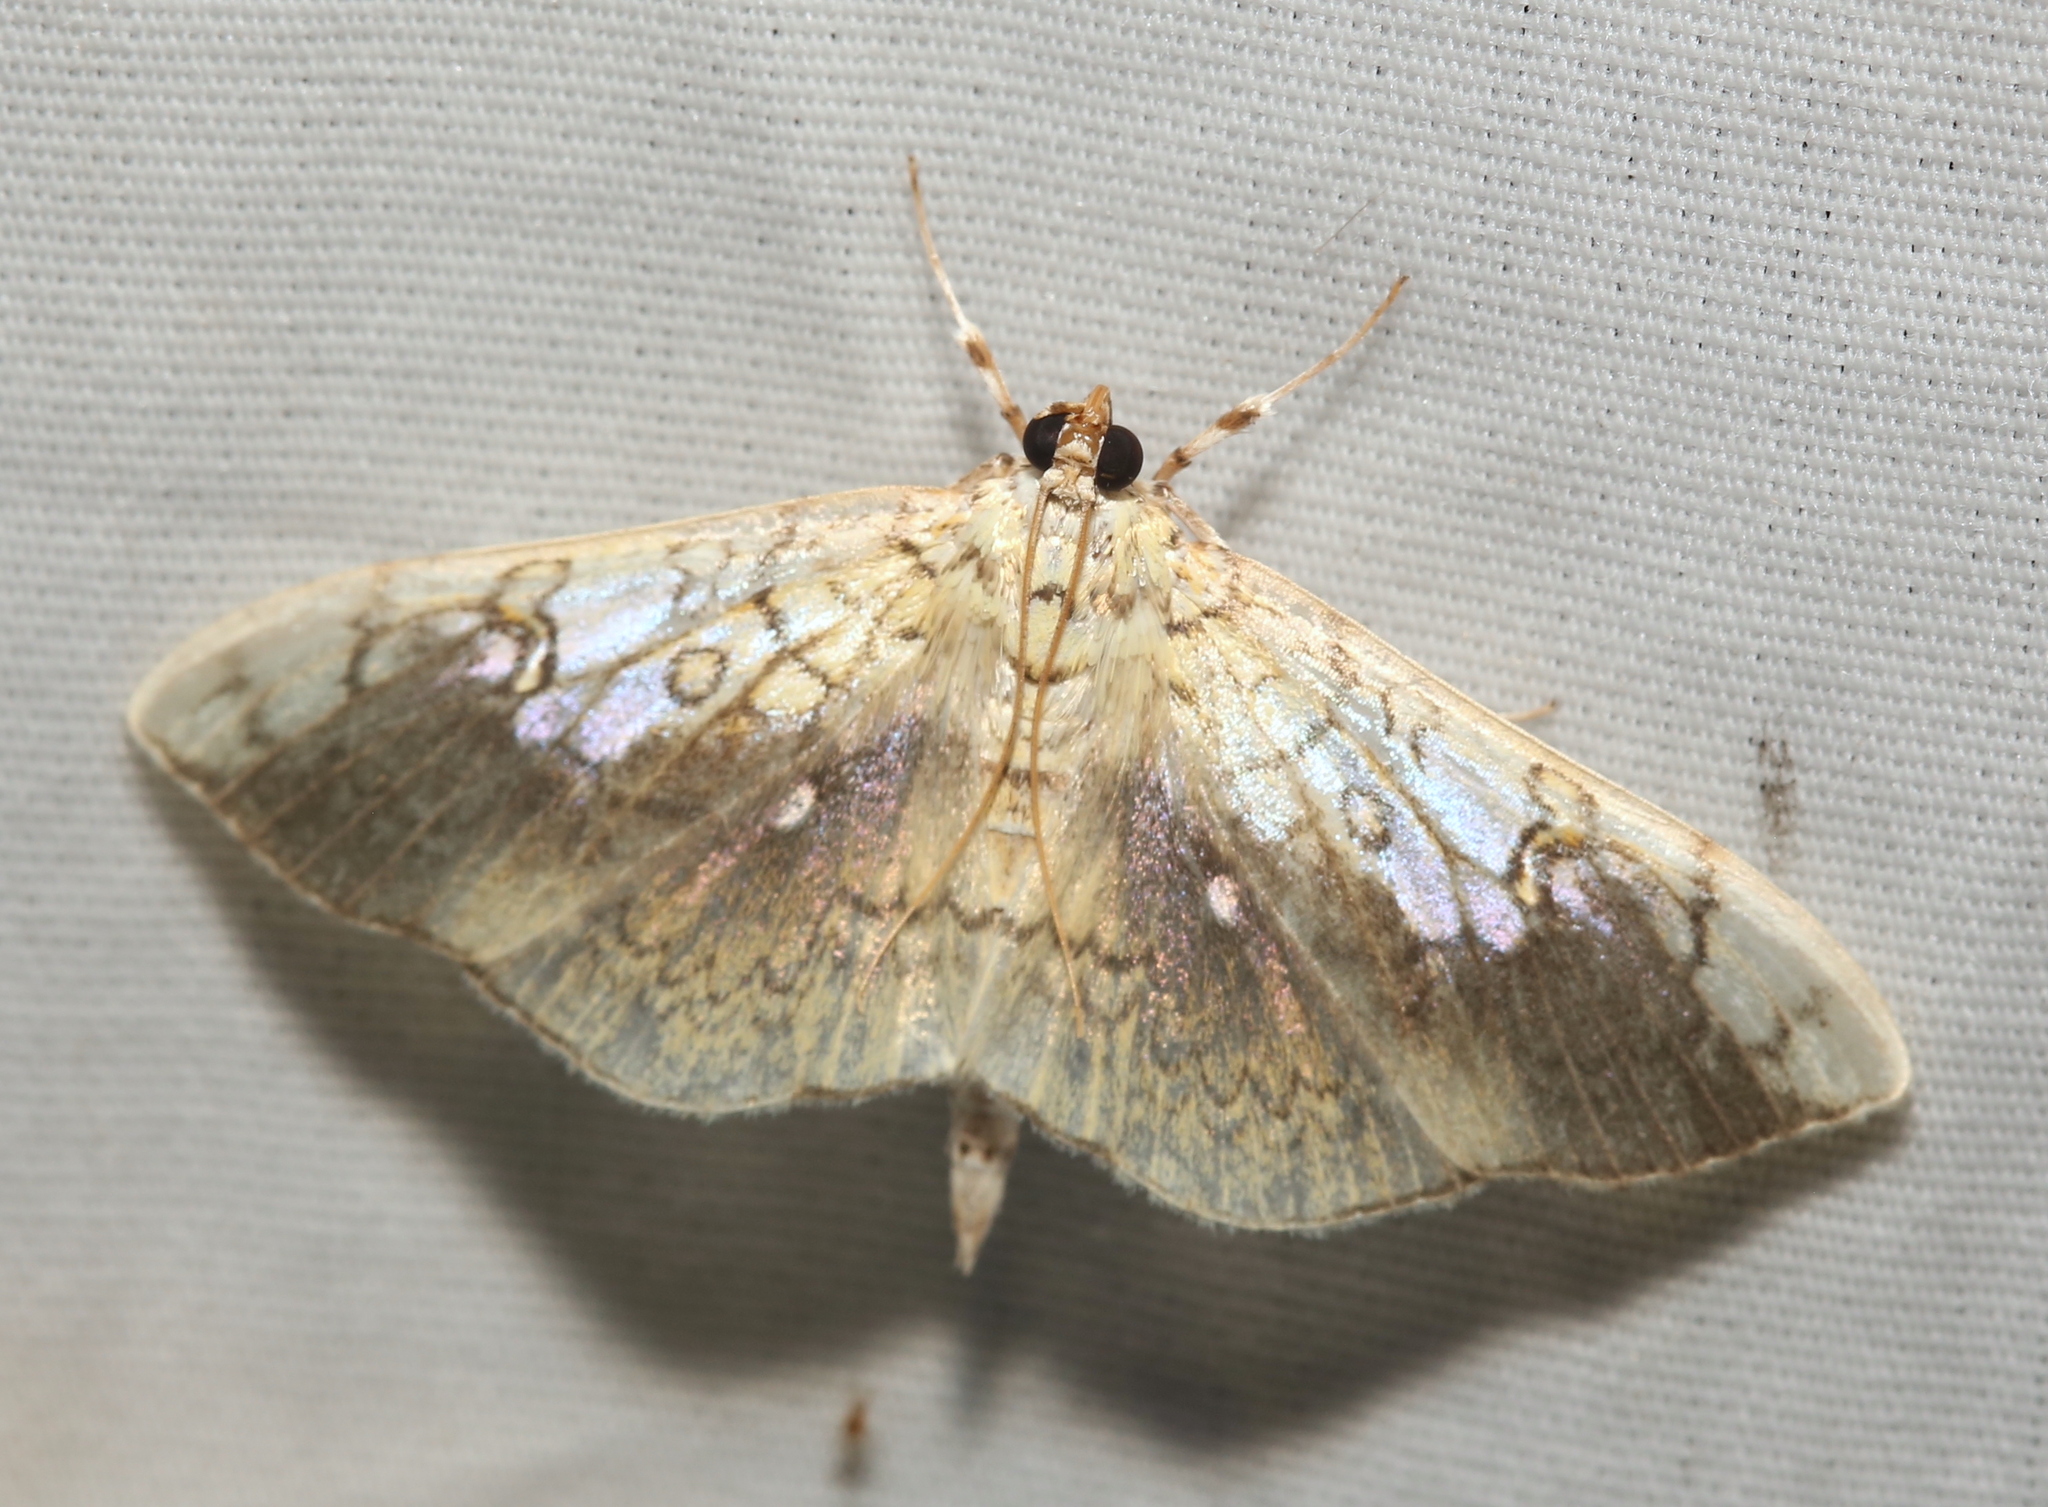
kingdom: Animalia
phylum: Arthropoda
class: Insecta
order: Lepidoptera
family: Crambidae
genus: Pantographa
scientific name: Pantographa limata
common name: Basswood leafroller moth
